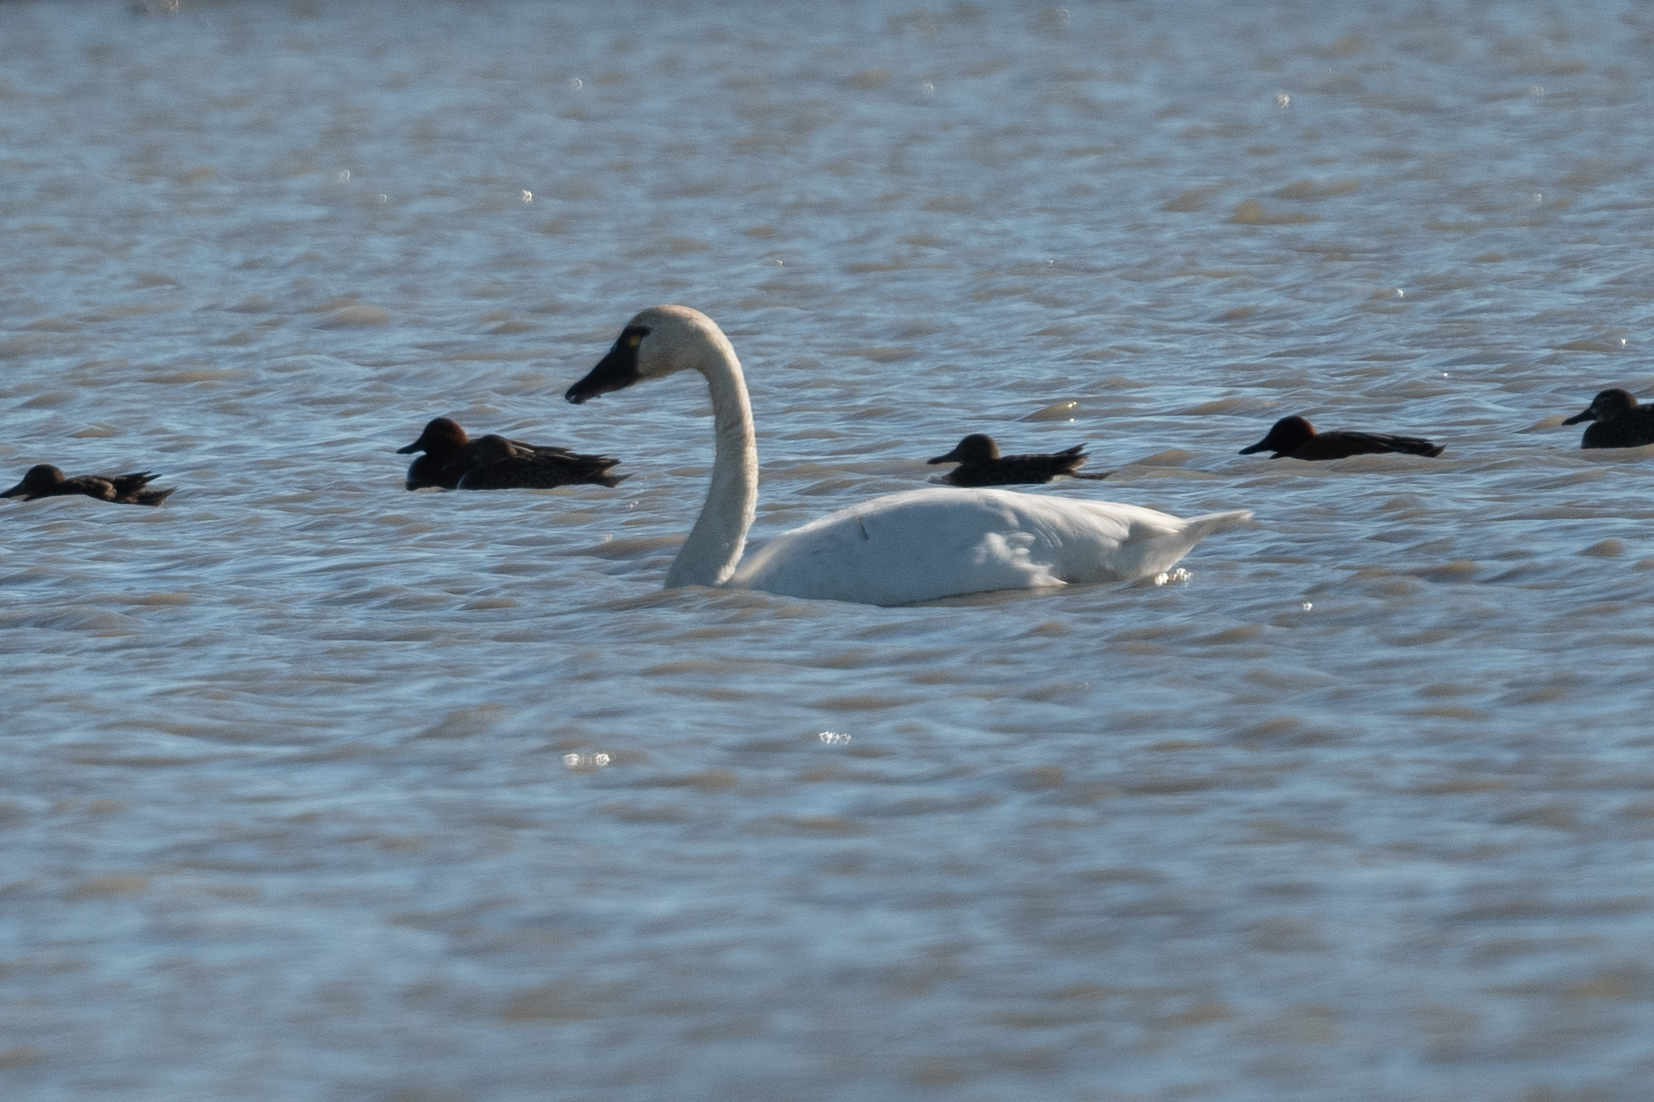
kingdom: Animalia
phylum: Chordata
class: Aves
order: Anseriformes
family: Anatidae
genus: Cygnus
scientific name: Cygnus columbianus
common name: Tundra swan
